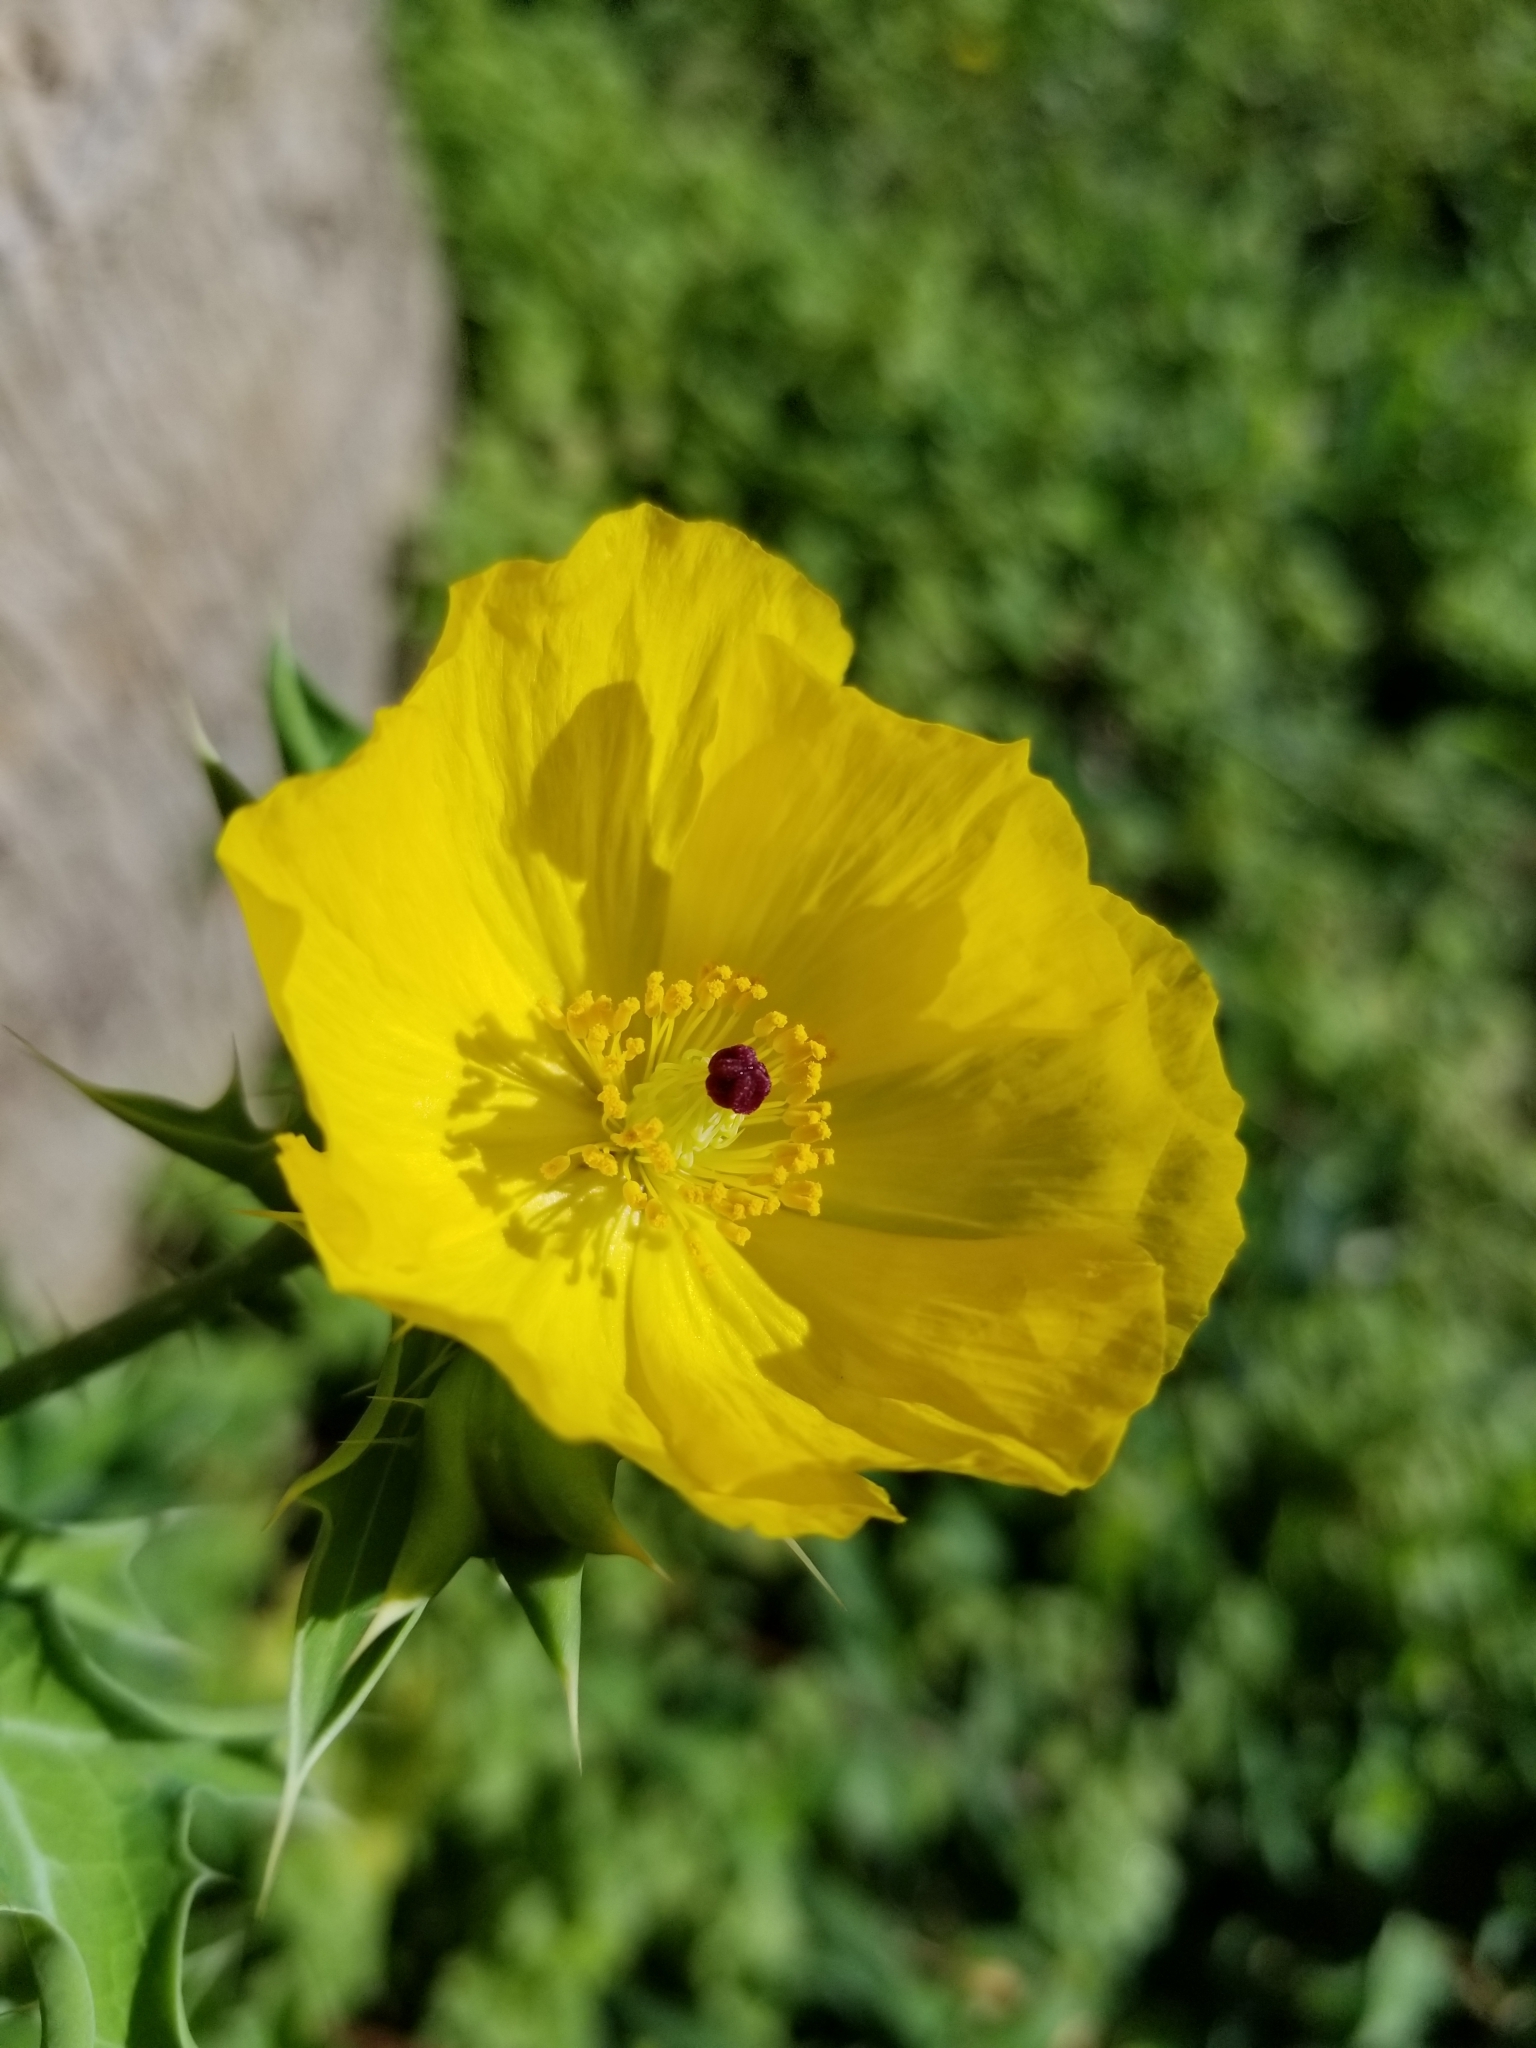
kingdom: Plantae
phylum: Tracheophyta
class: Magnoliopsida
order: Ranunculales
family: Papaveraceae
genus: Argemone
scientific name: Argemone mexicana
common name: Mexican poppy
